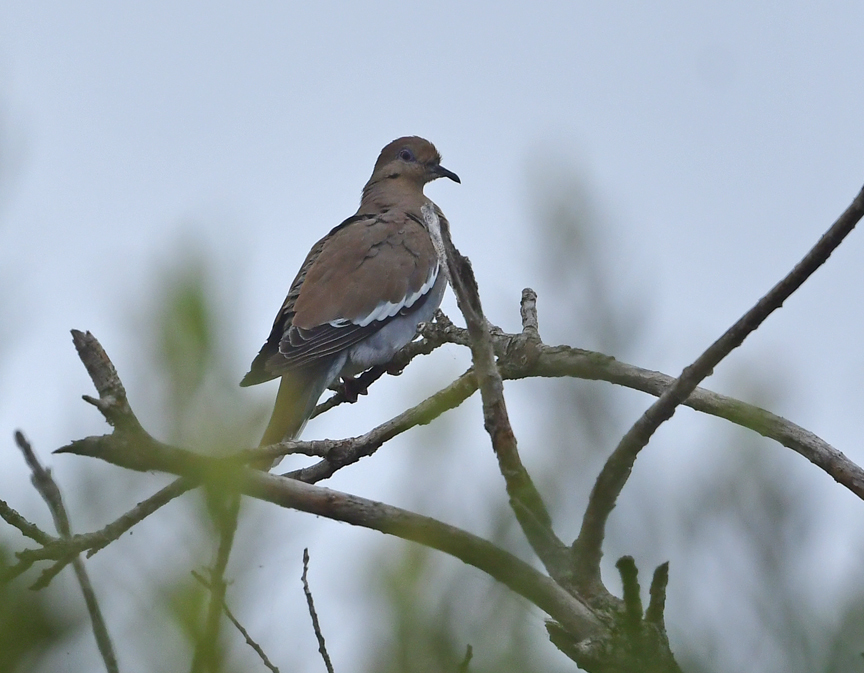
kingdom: Animalia
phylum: Chordata
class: Aves
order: Columbiformes
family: Columbidae
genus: Zenaida
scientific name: Zenaida asiatica
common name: White-winged dove
